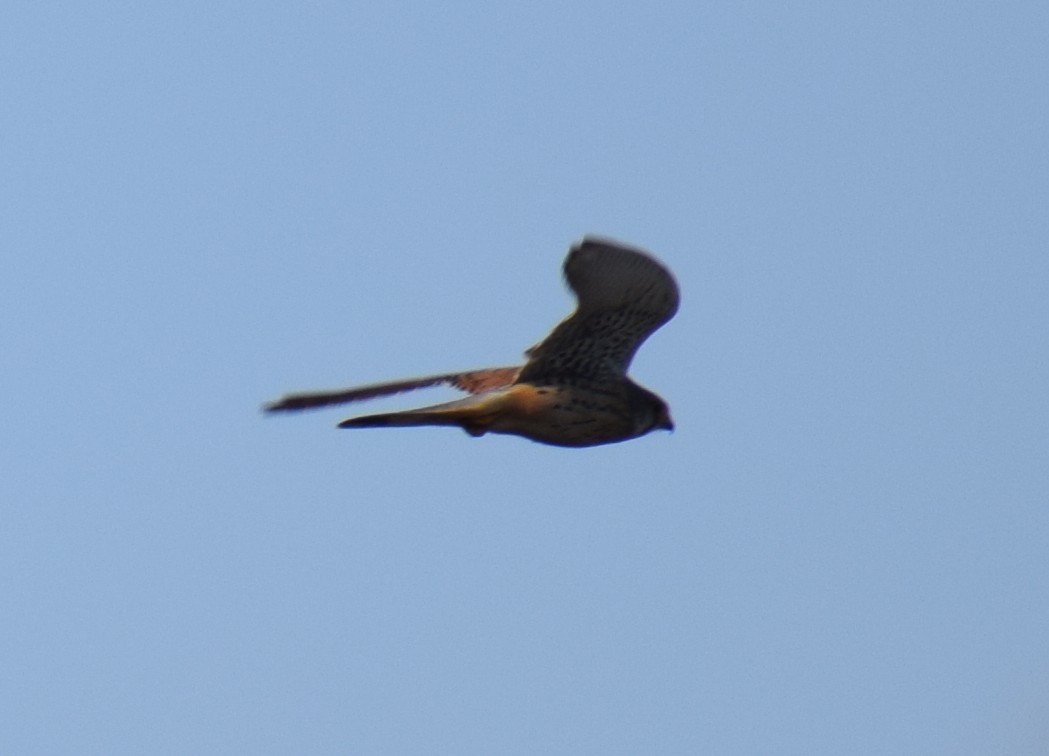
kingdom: Animalia
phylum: Chordata
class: Aves
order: Falconiformes
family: Falconidae
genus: Falco
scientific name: Falco tinnunculus
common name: Common kestrel
